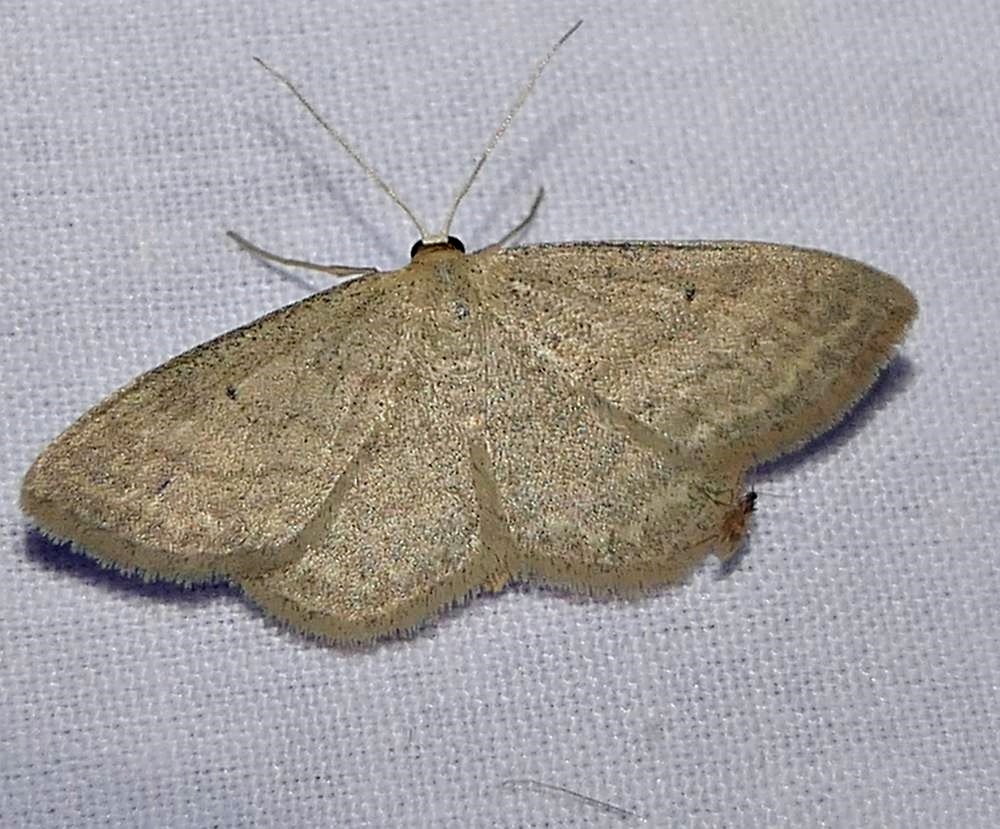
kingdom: Animalia
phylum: Arthropoda
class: Insecta
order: Lepidoptera
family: Geometridae
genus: Scopula
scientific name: Scopula inductata
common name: Soft-lined wave
